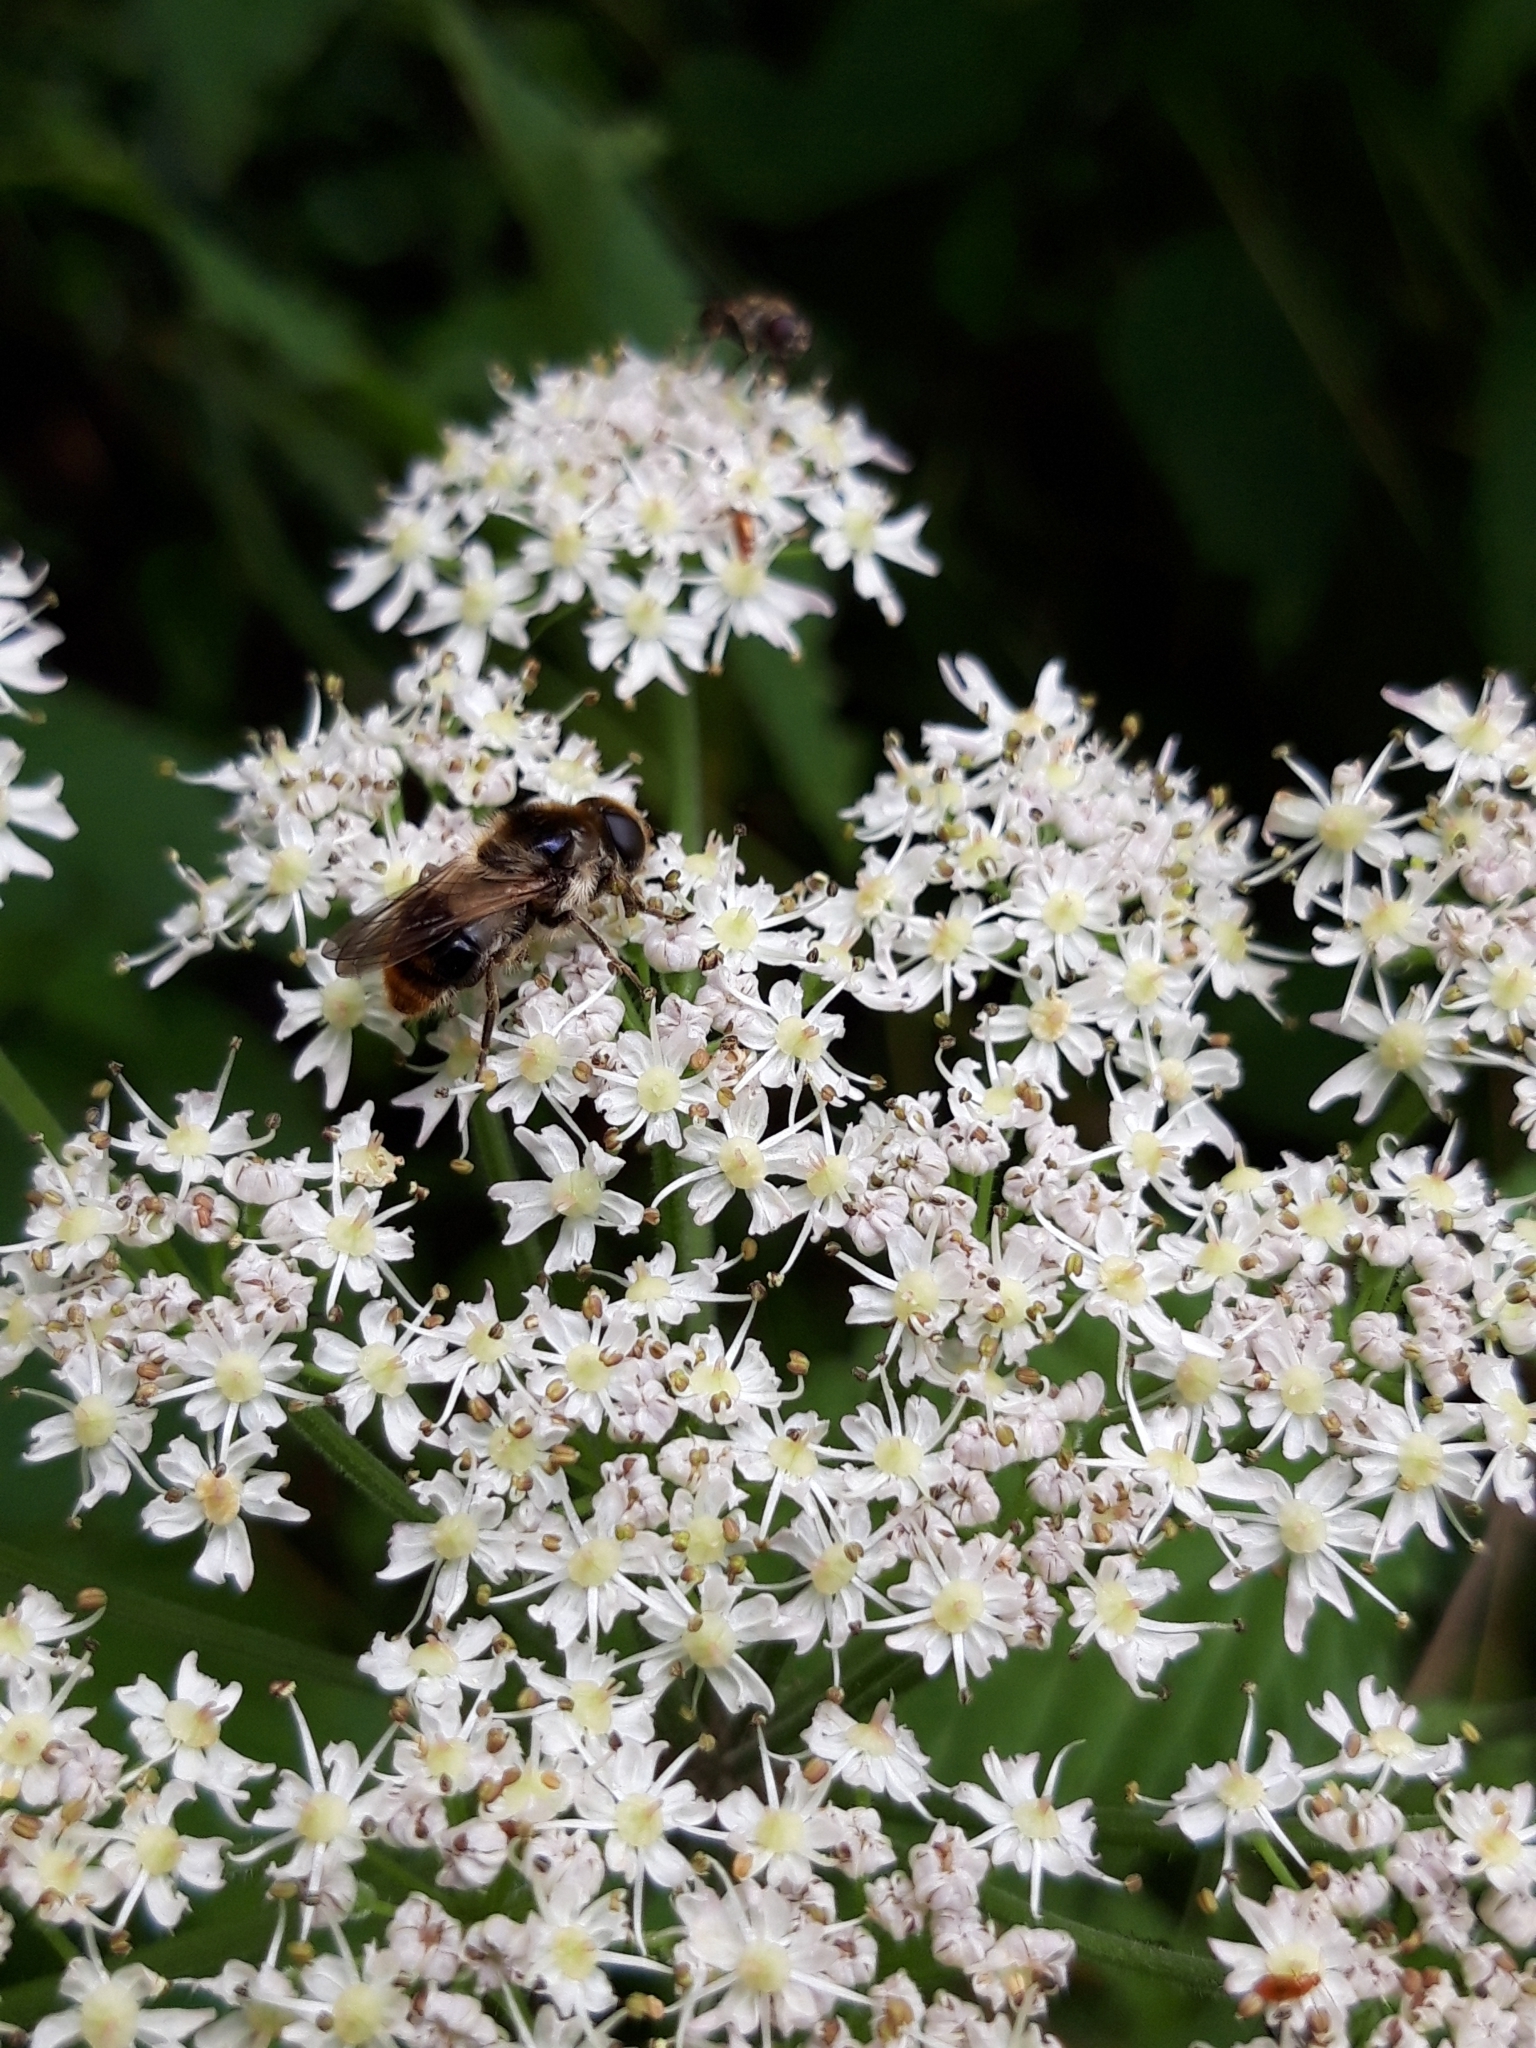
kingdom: Animalia
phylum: Arthropoda
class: Insecta
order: Diptera
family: Syrphidae
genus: Cheilosia
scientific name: Cheilosia illustrata
